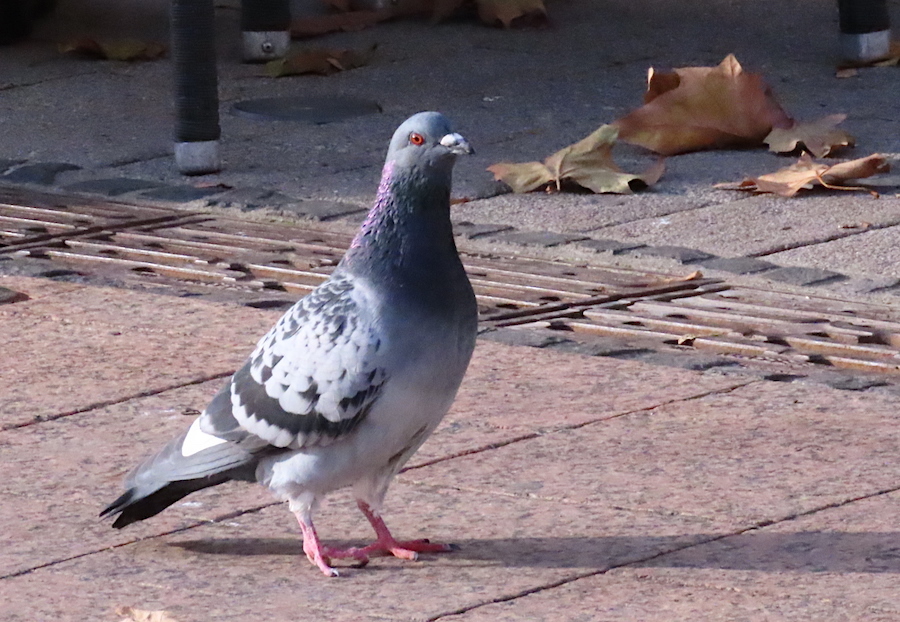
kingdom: Animalia
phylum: Chordata
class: Aves
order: Columbiformes
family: Columbidae
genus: Columba
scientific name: Columba livia
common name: Rock pigeon
